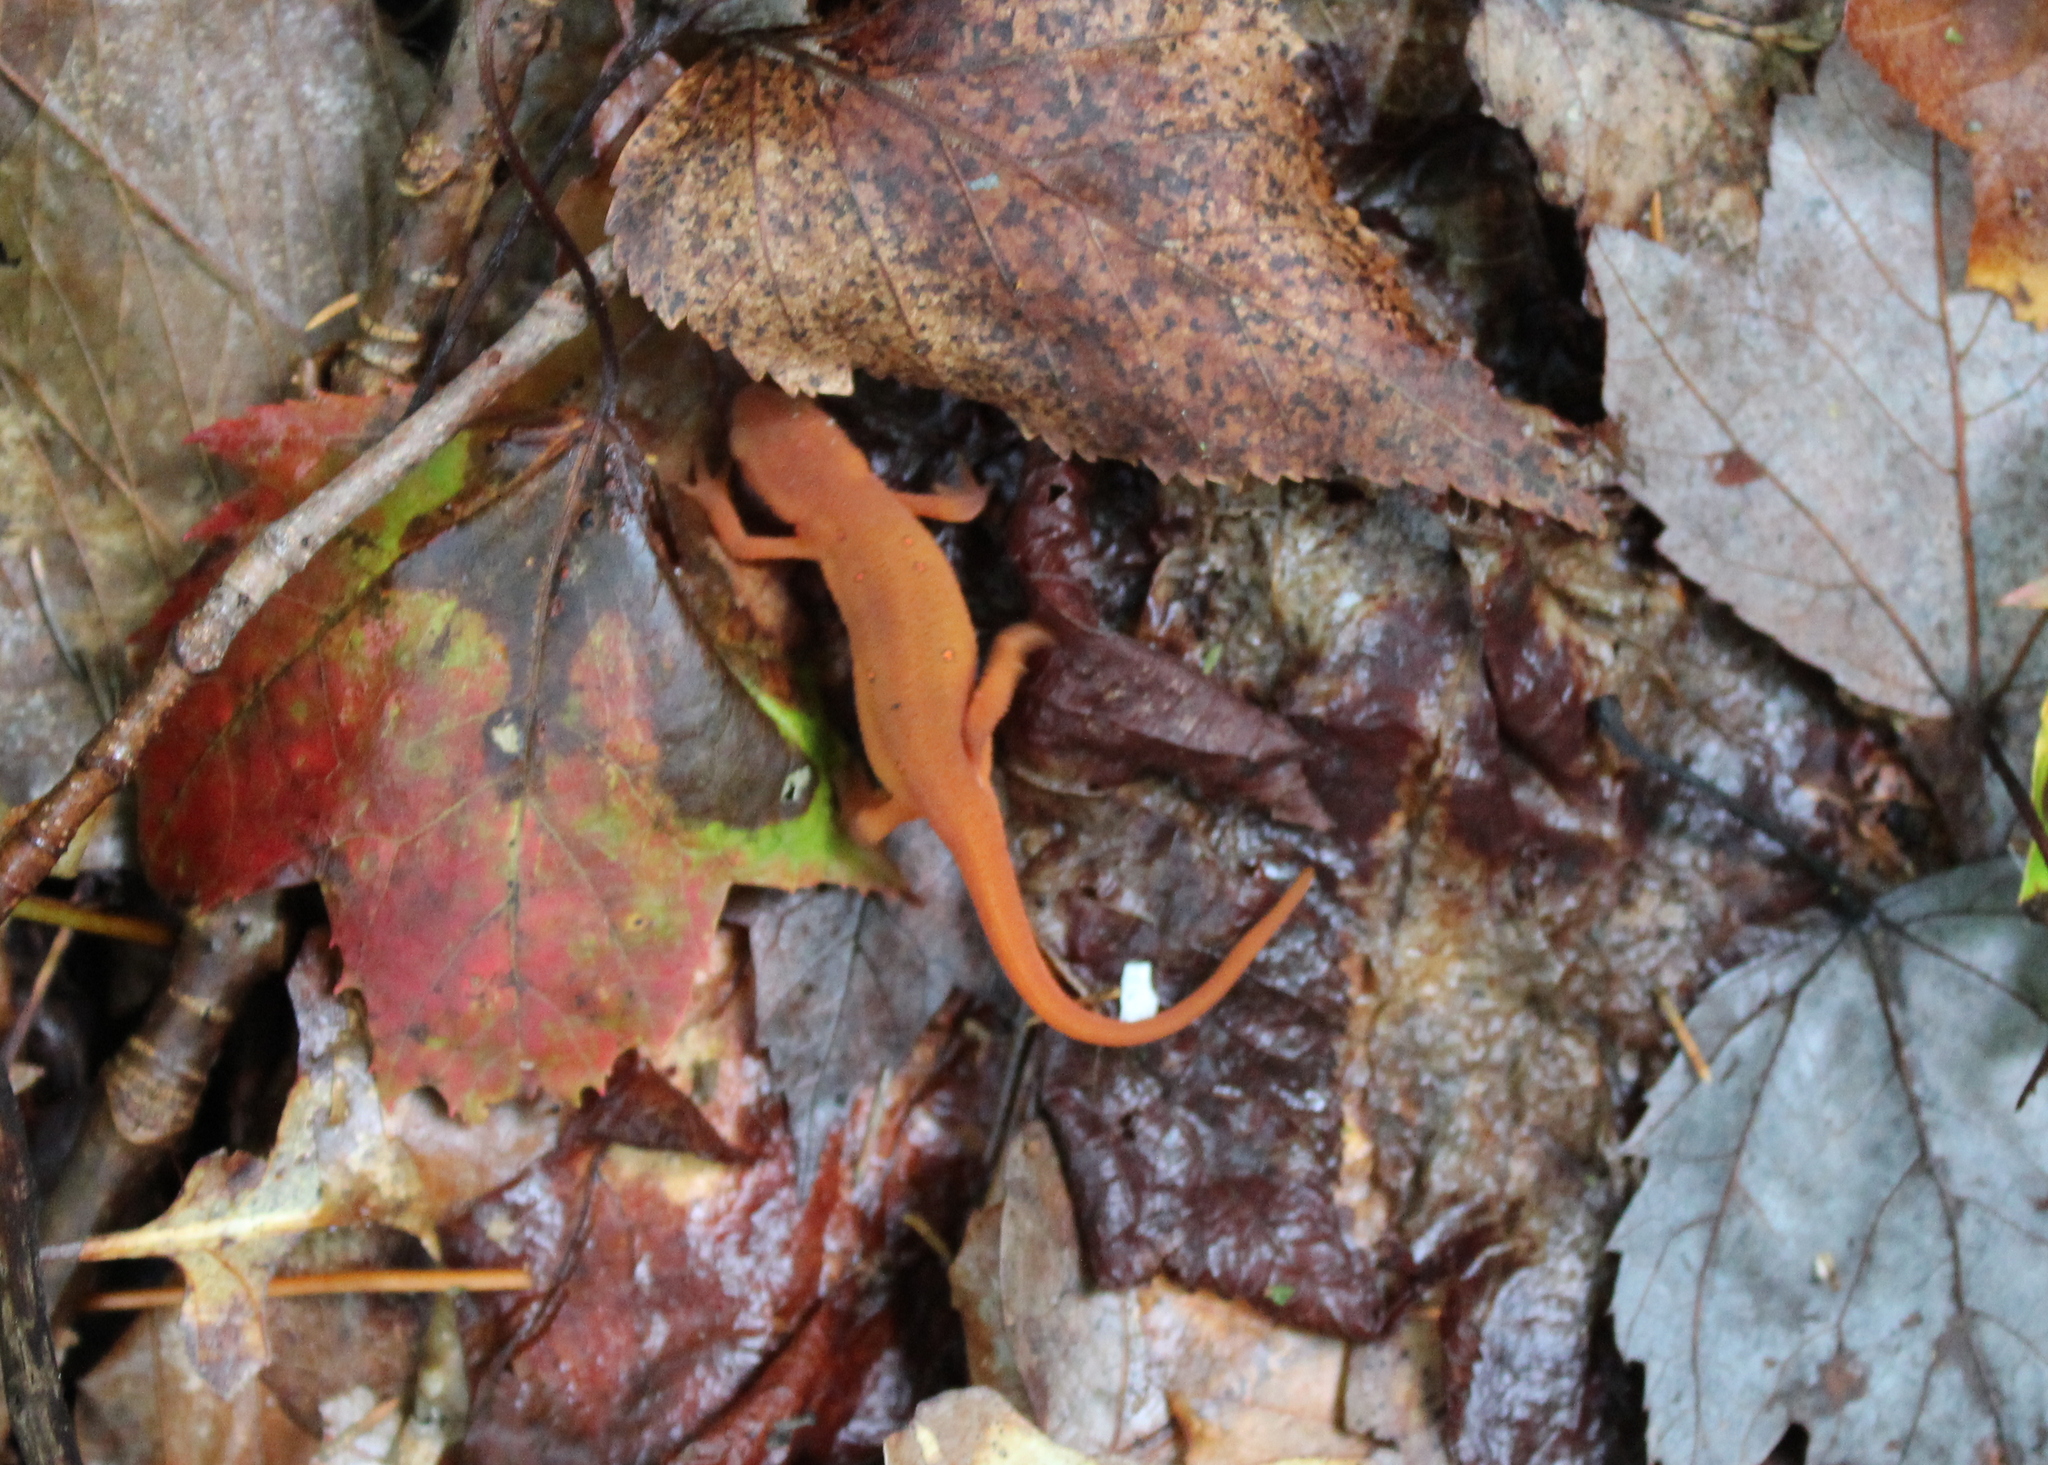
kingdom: Animalia
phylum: Chordata
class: Amphibia
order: Caudata
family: Salamandridae
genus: Notophthalmus
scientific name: Notophthalmus viridescens
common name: Eastern newt
